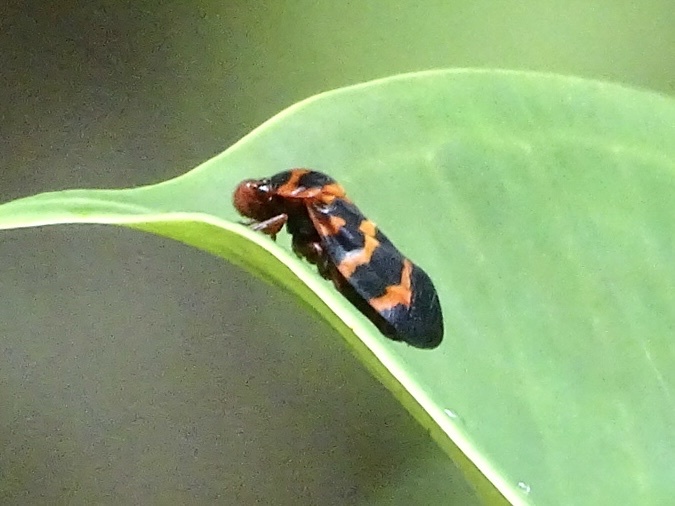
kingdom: Animalia
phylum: Arthropoda
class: Insecta
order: Hemiptera
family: Cercopidae
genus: Cosmoscarta
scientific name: Cosmoscarta bispecularis
